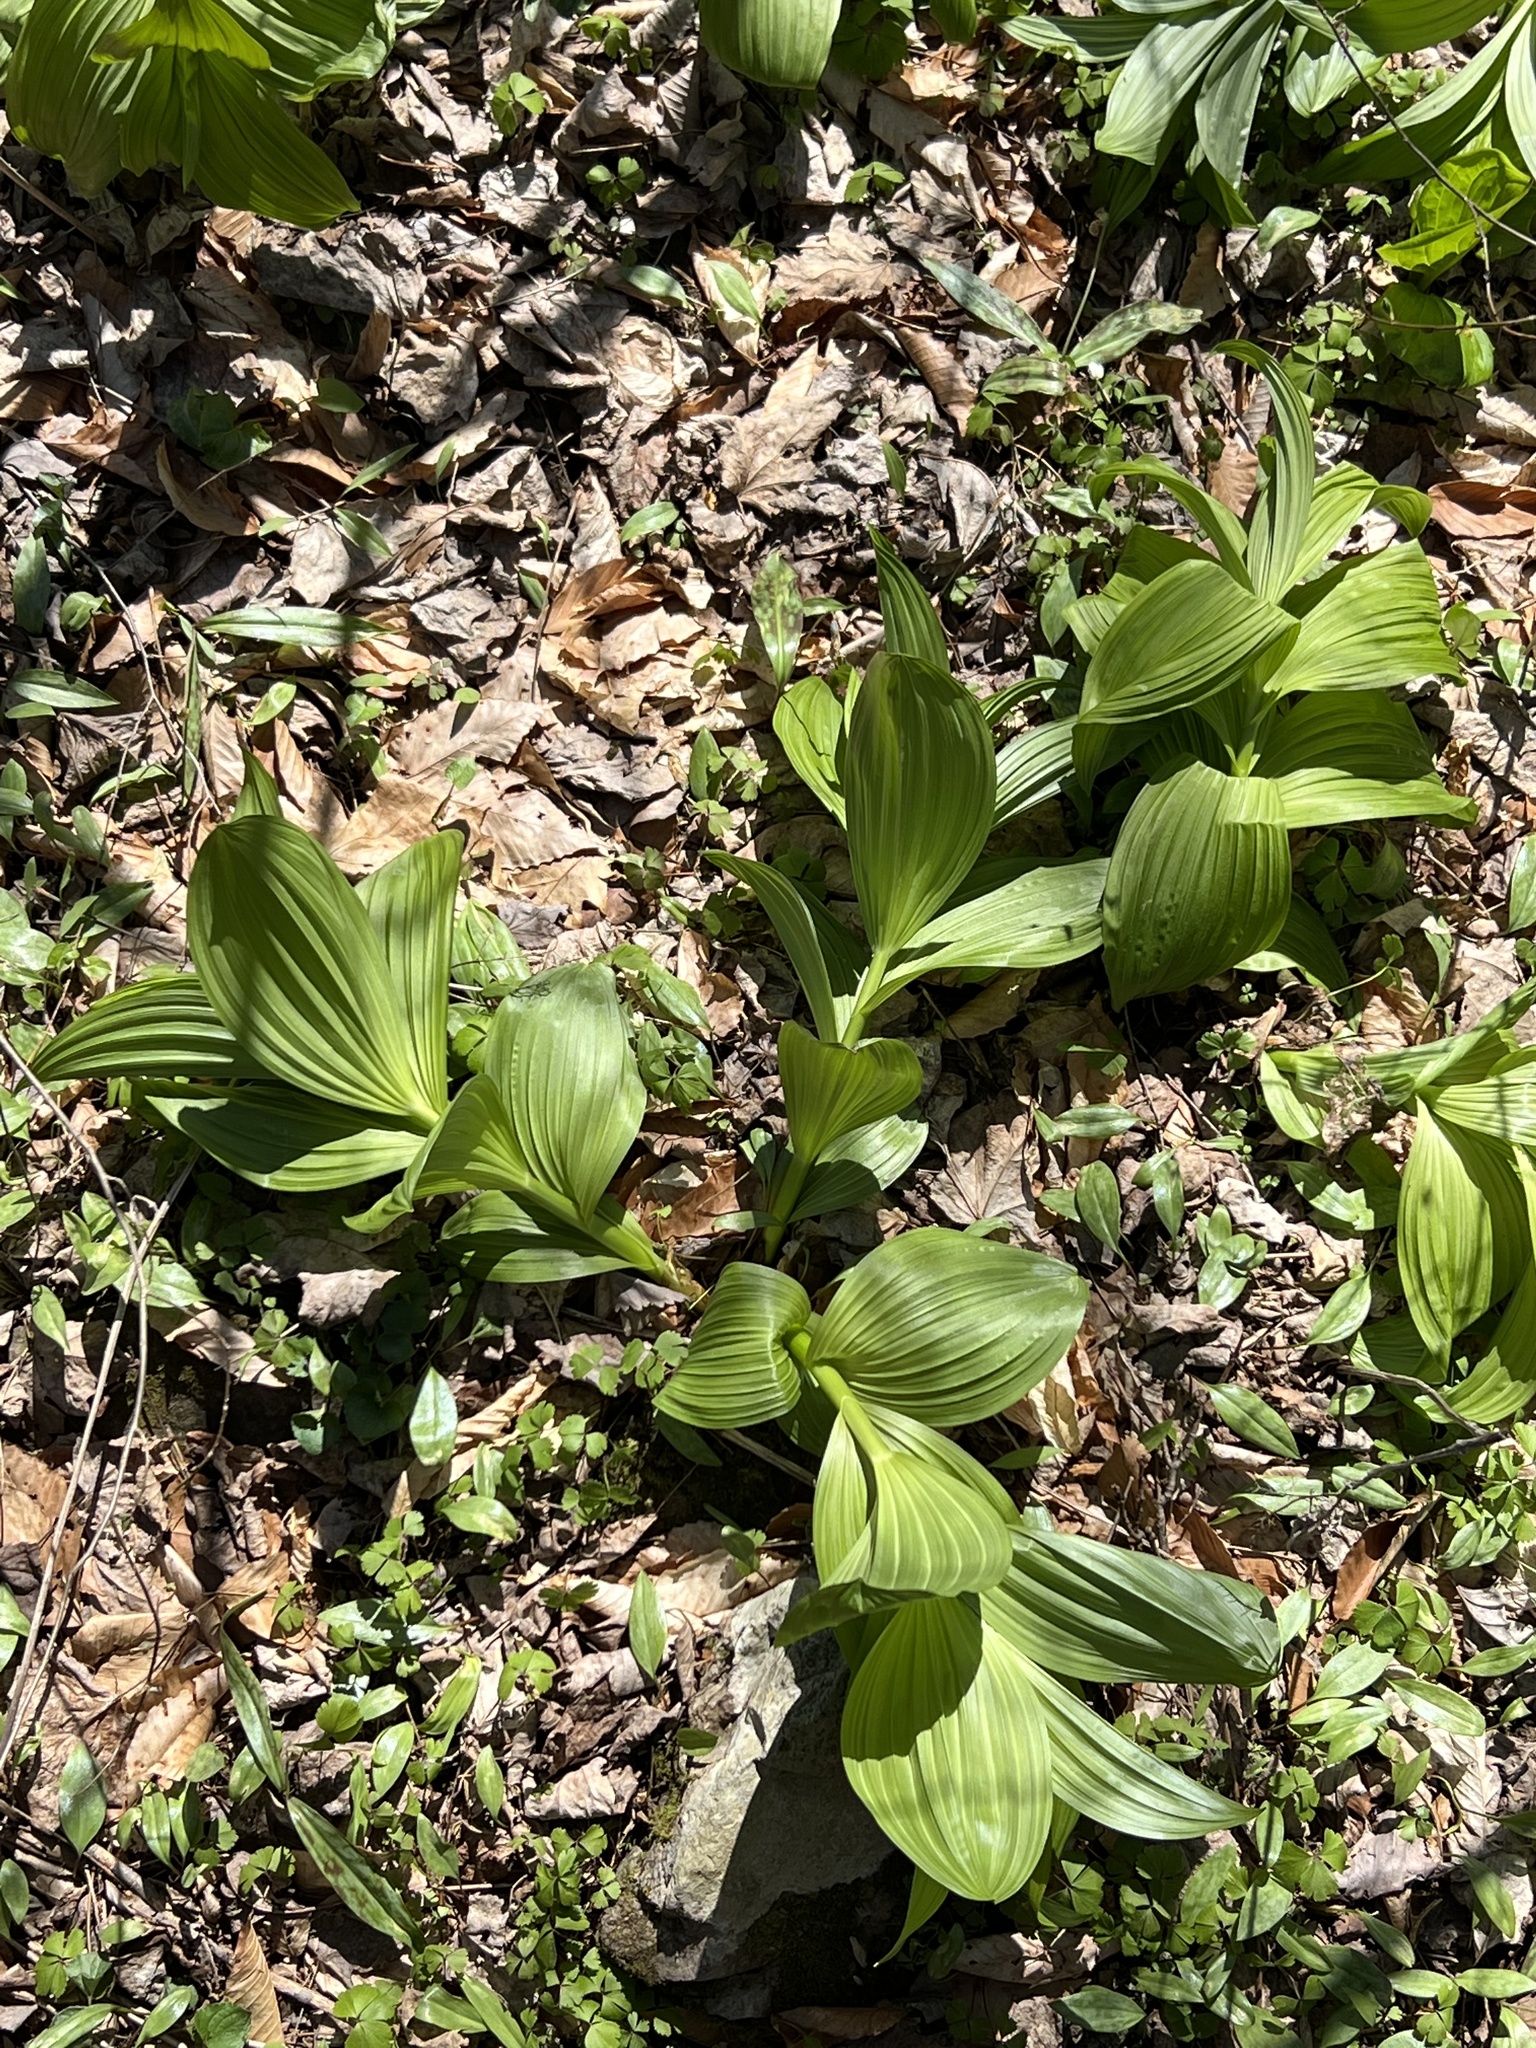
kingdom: Plantae
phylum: Tracheophyta
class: Liliopsida
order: Liliales
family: Melanthiaceae
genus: Veratrum
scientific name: Veratrum viride
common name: American false hellebore
